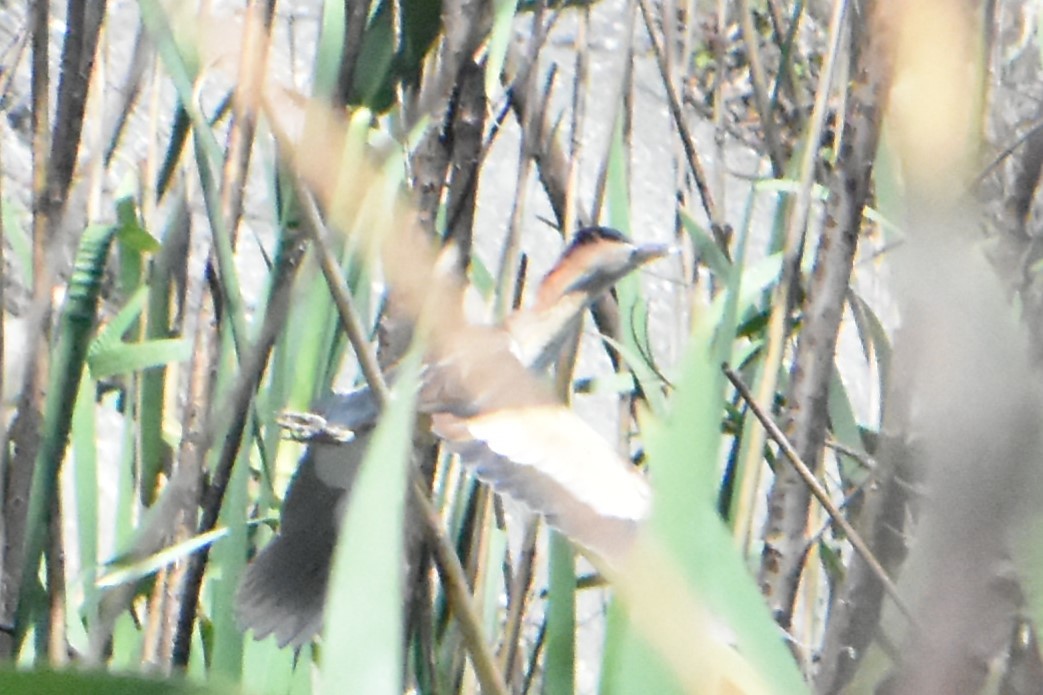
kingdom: Animalia
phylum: Chordata
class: Aves
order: Pelecaniformes
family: Ardeidae
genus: Ixobrychus
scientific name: Ixobrychus minutus
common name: Little bittern
